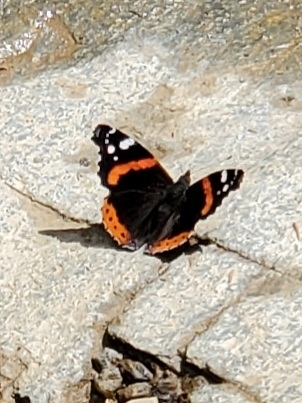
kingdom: Animalia
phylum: Arthropoda
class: Insecta
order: Lepidoptera
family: Nymphalidae
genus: Vanessa
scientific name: Vanessa atalanta
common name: Red admiral
